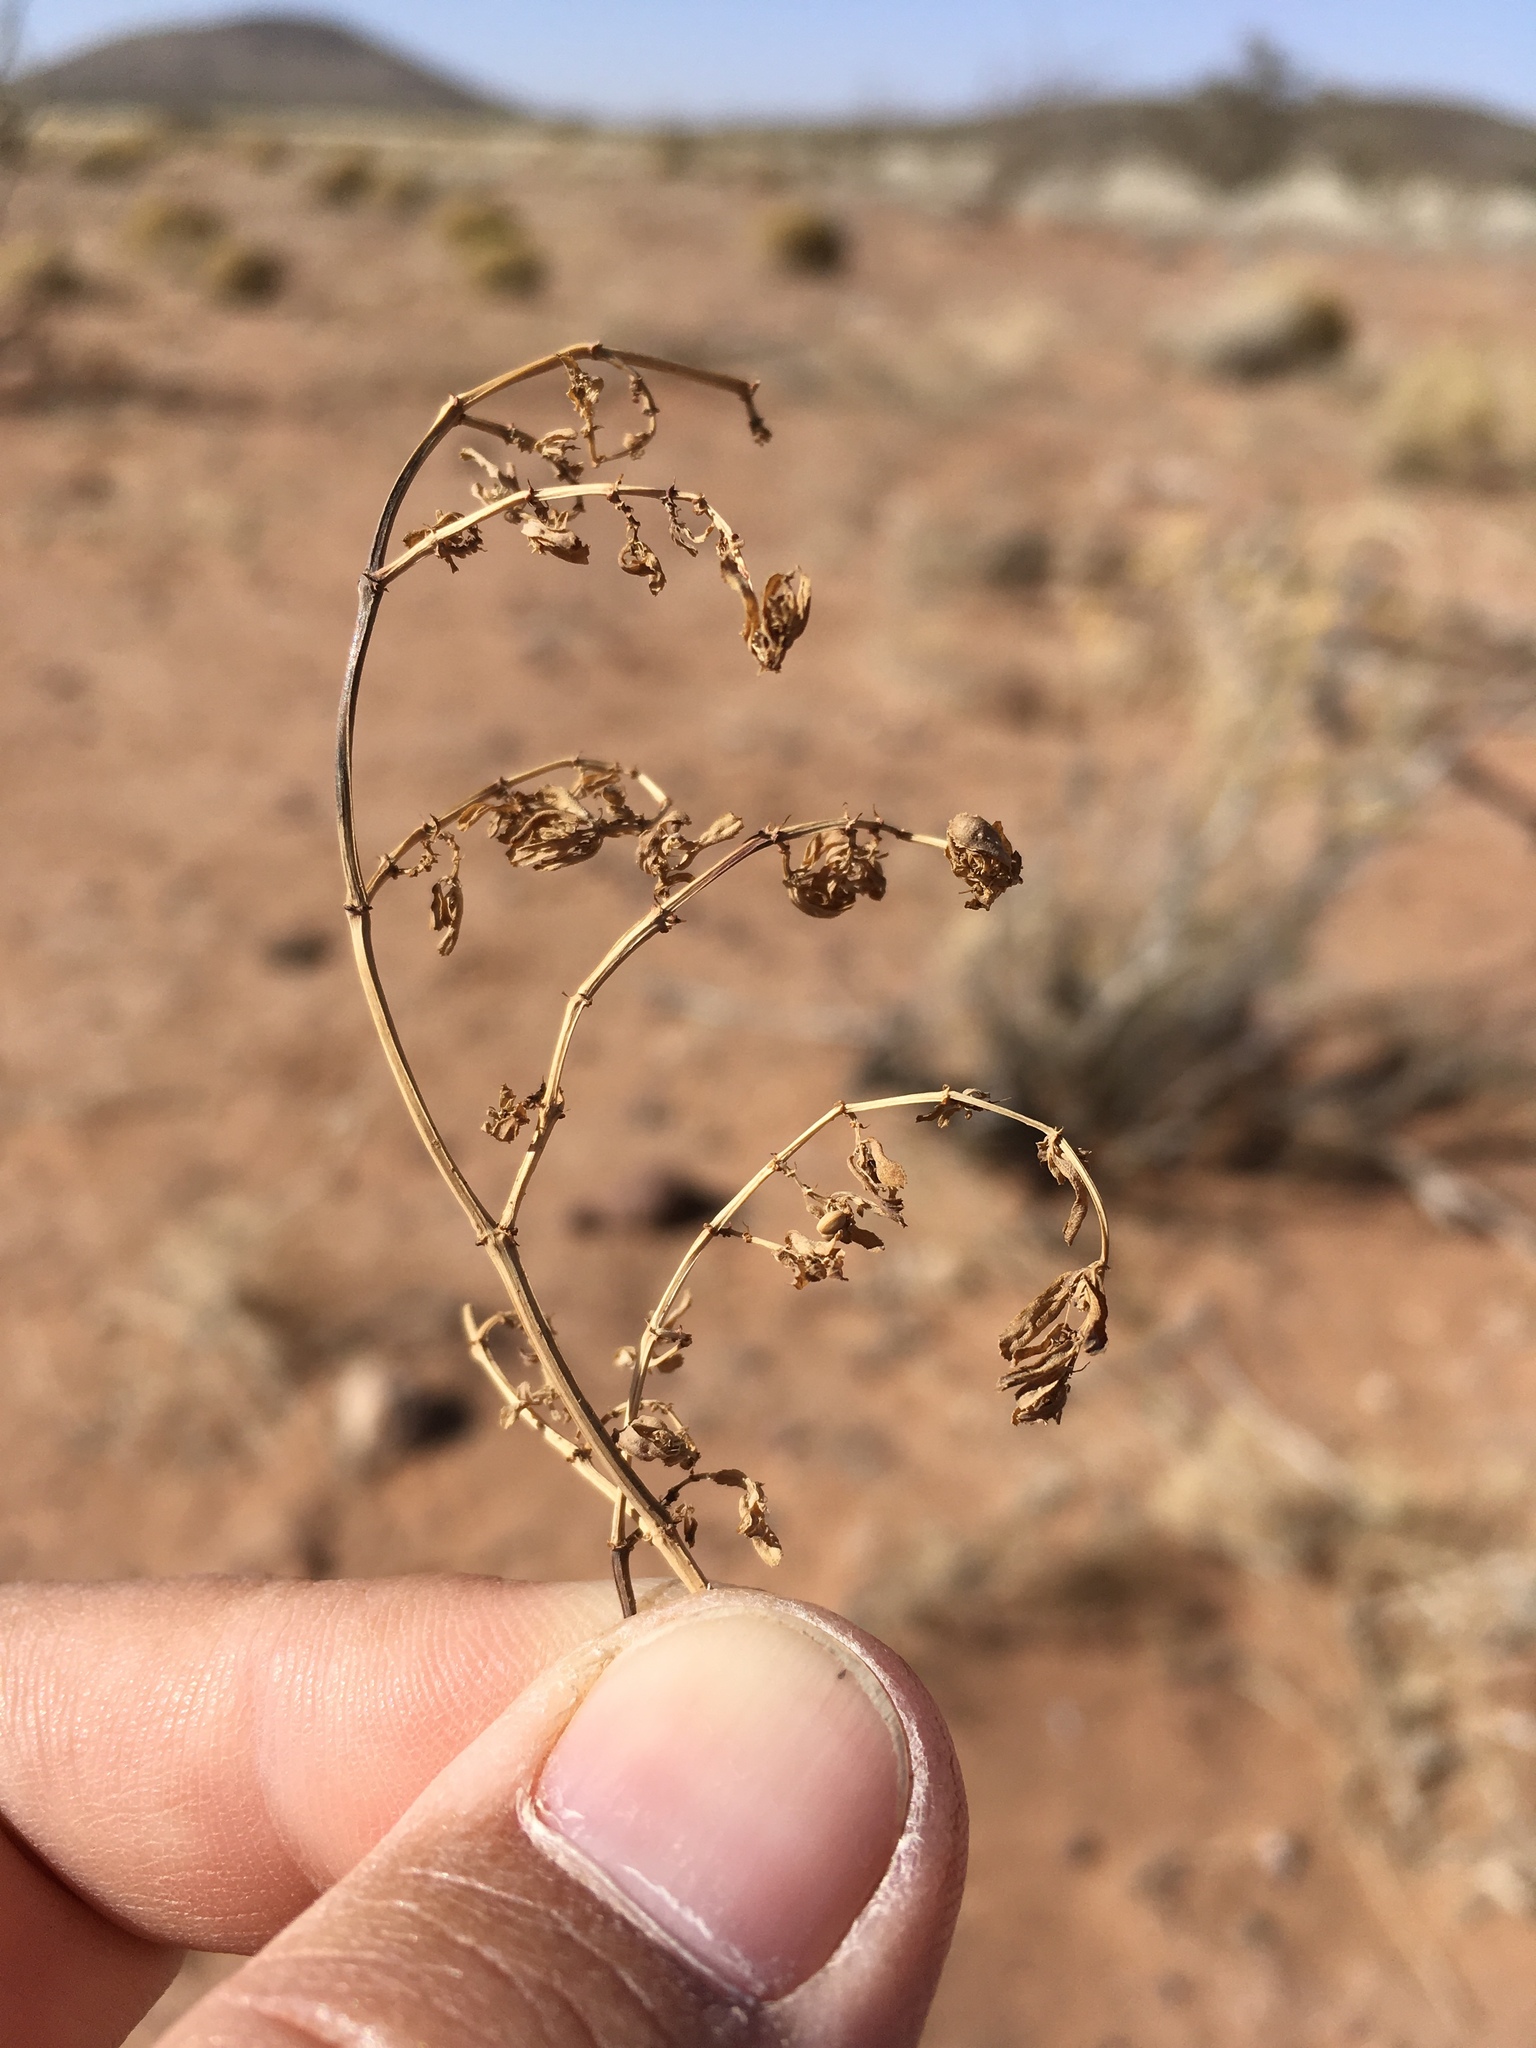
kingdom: Plantae
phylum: Tracheophyta
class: Magnoliopsida
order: Malpighiales
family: Euphorbiaceae
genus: Euphorbia
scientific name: Euphorbia serpillifolia
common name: Thyme-leaf spurge
